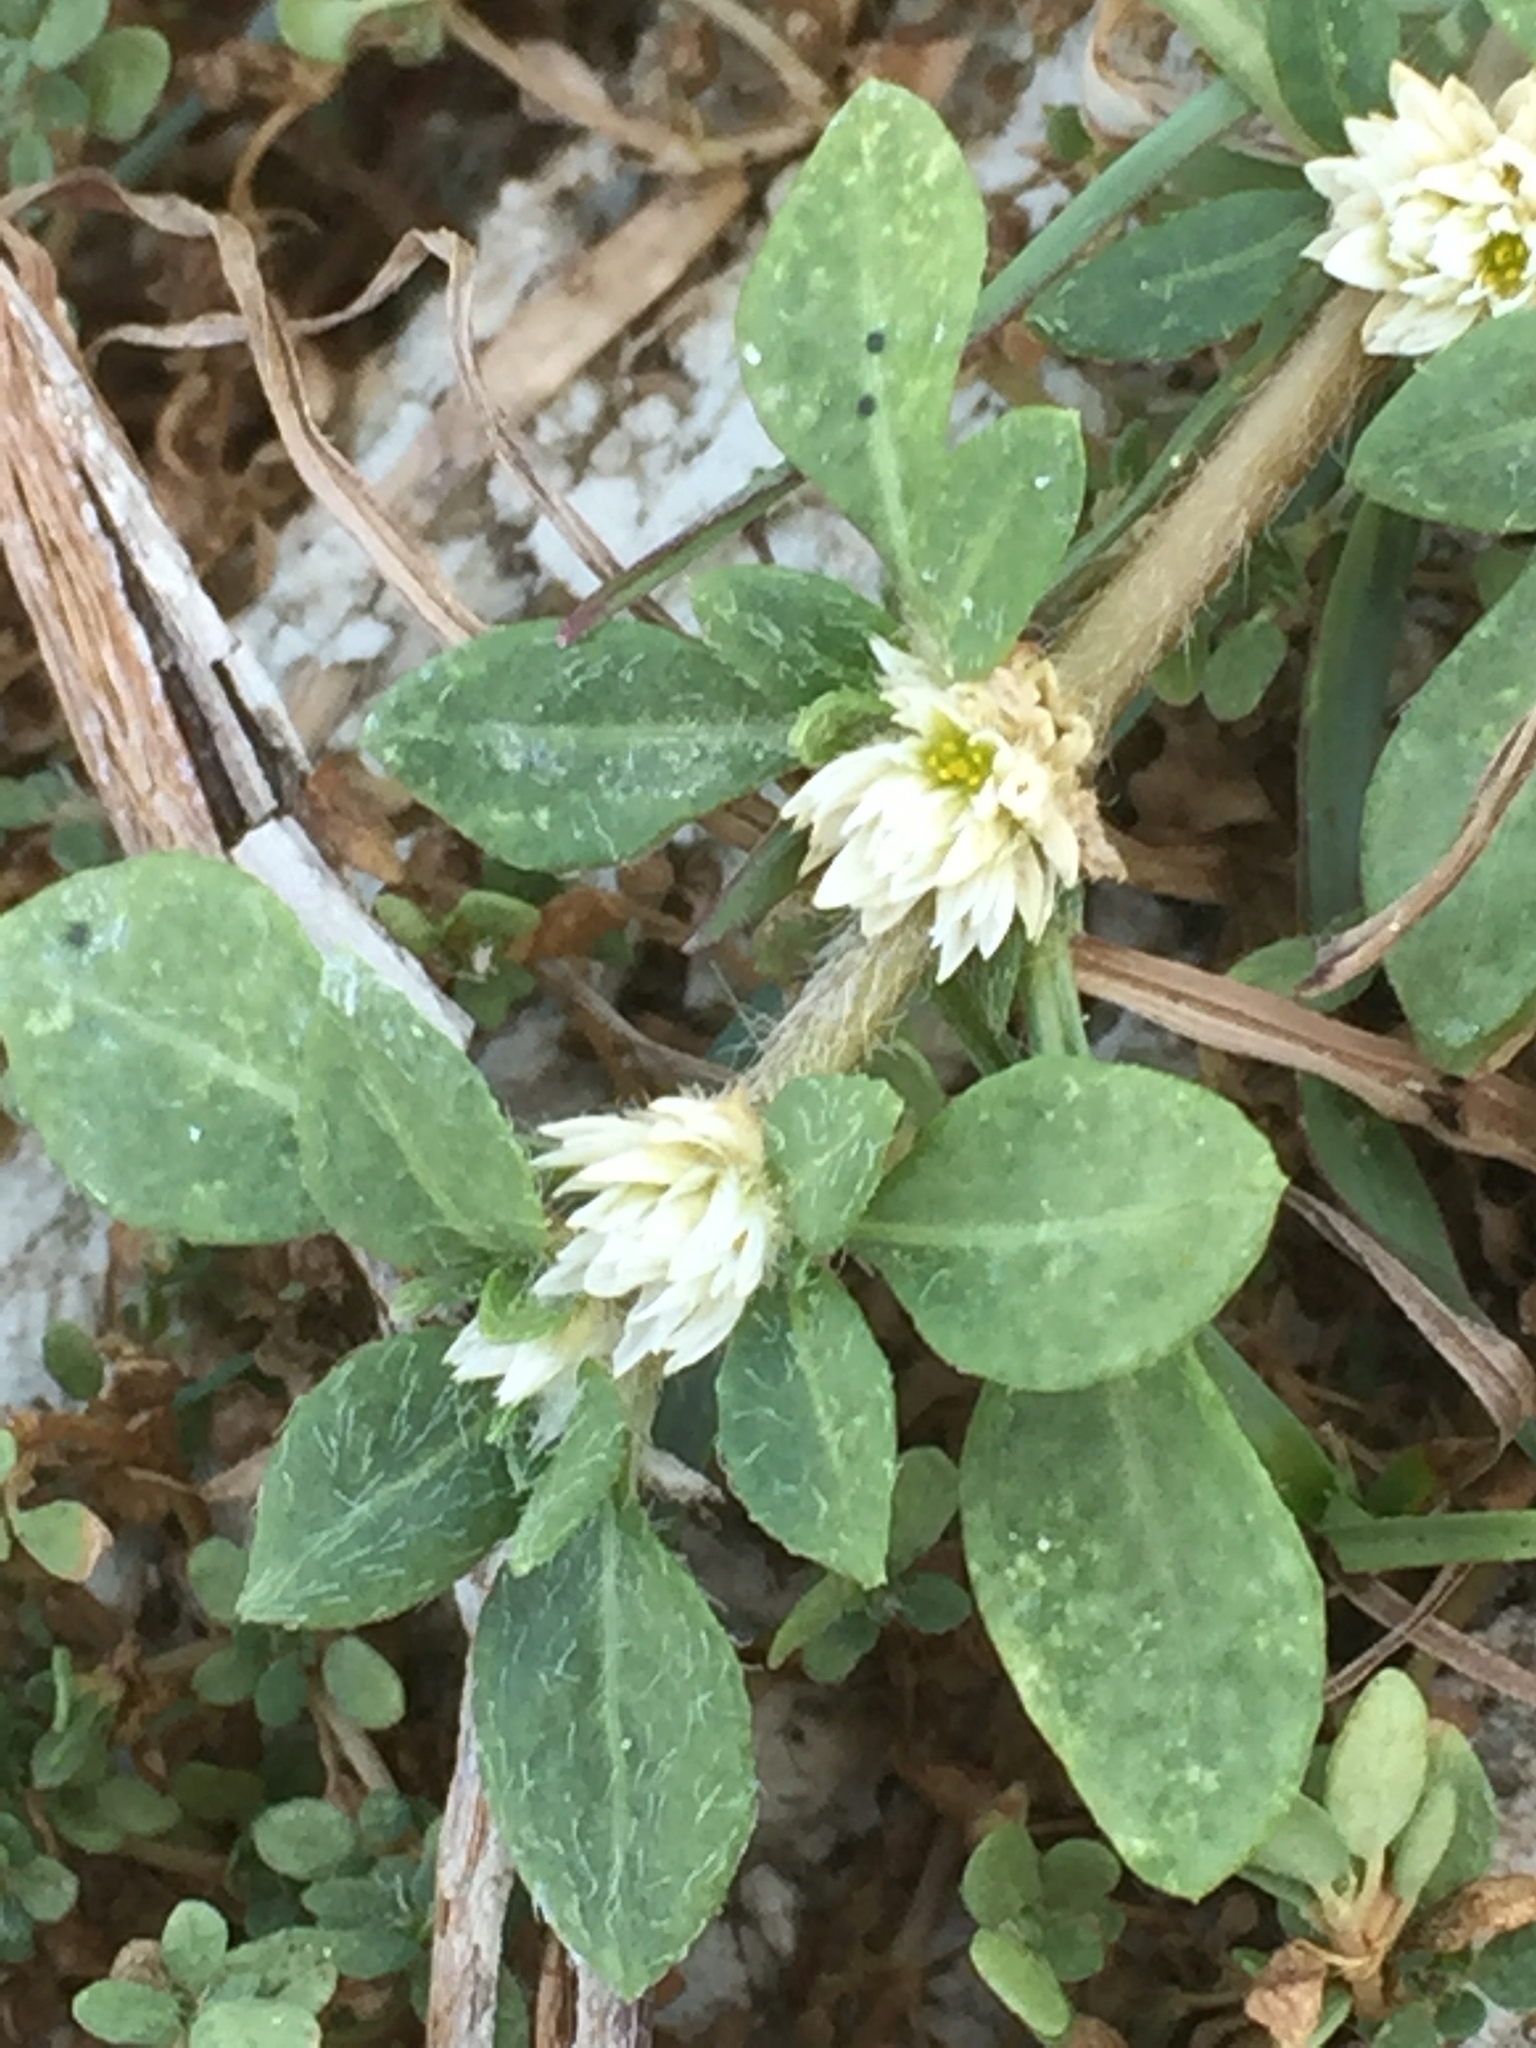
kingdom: Plantae
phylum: Tracheophyta
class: Magnoliopsida
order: Caryophyllales
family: Amaranthaceae
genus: Alternanthera
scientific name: Alternanthera philoxeroides
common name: Alligatorweed
